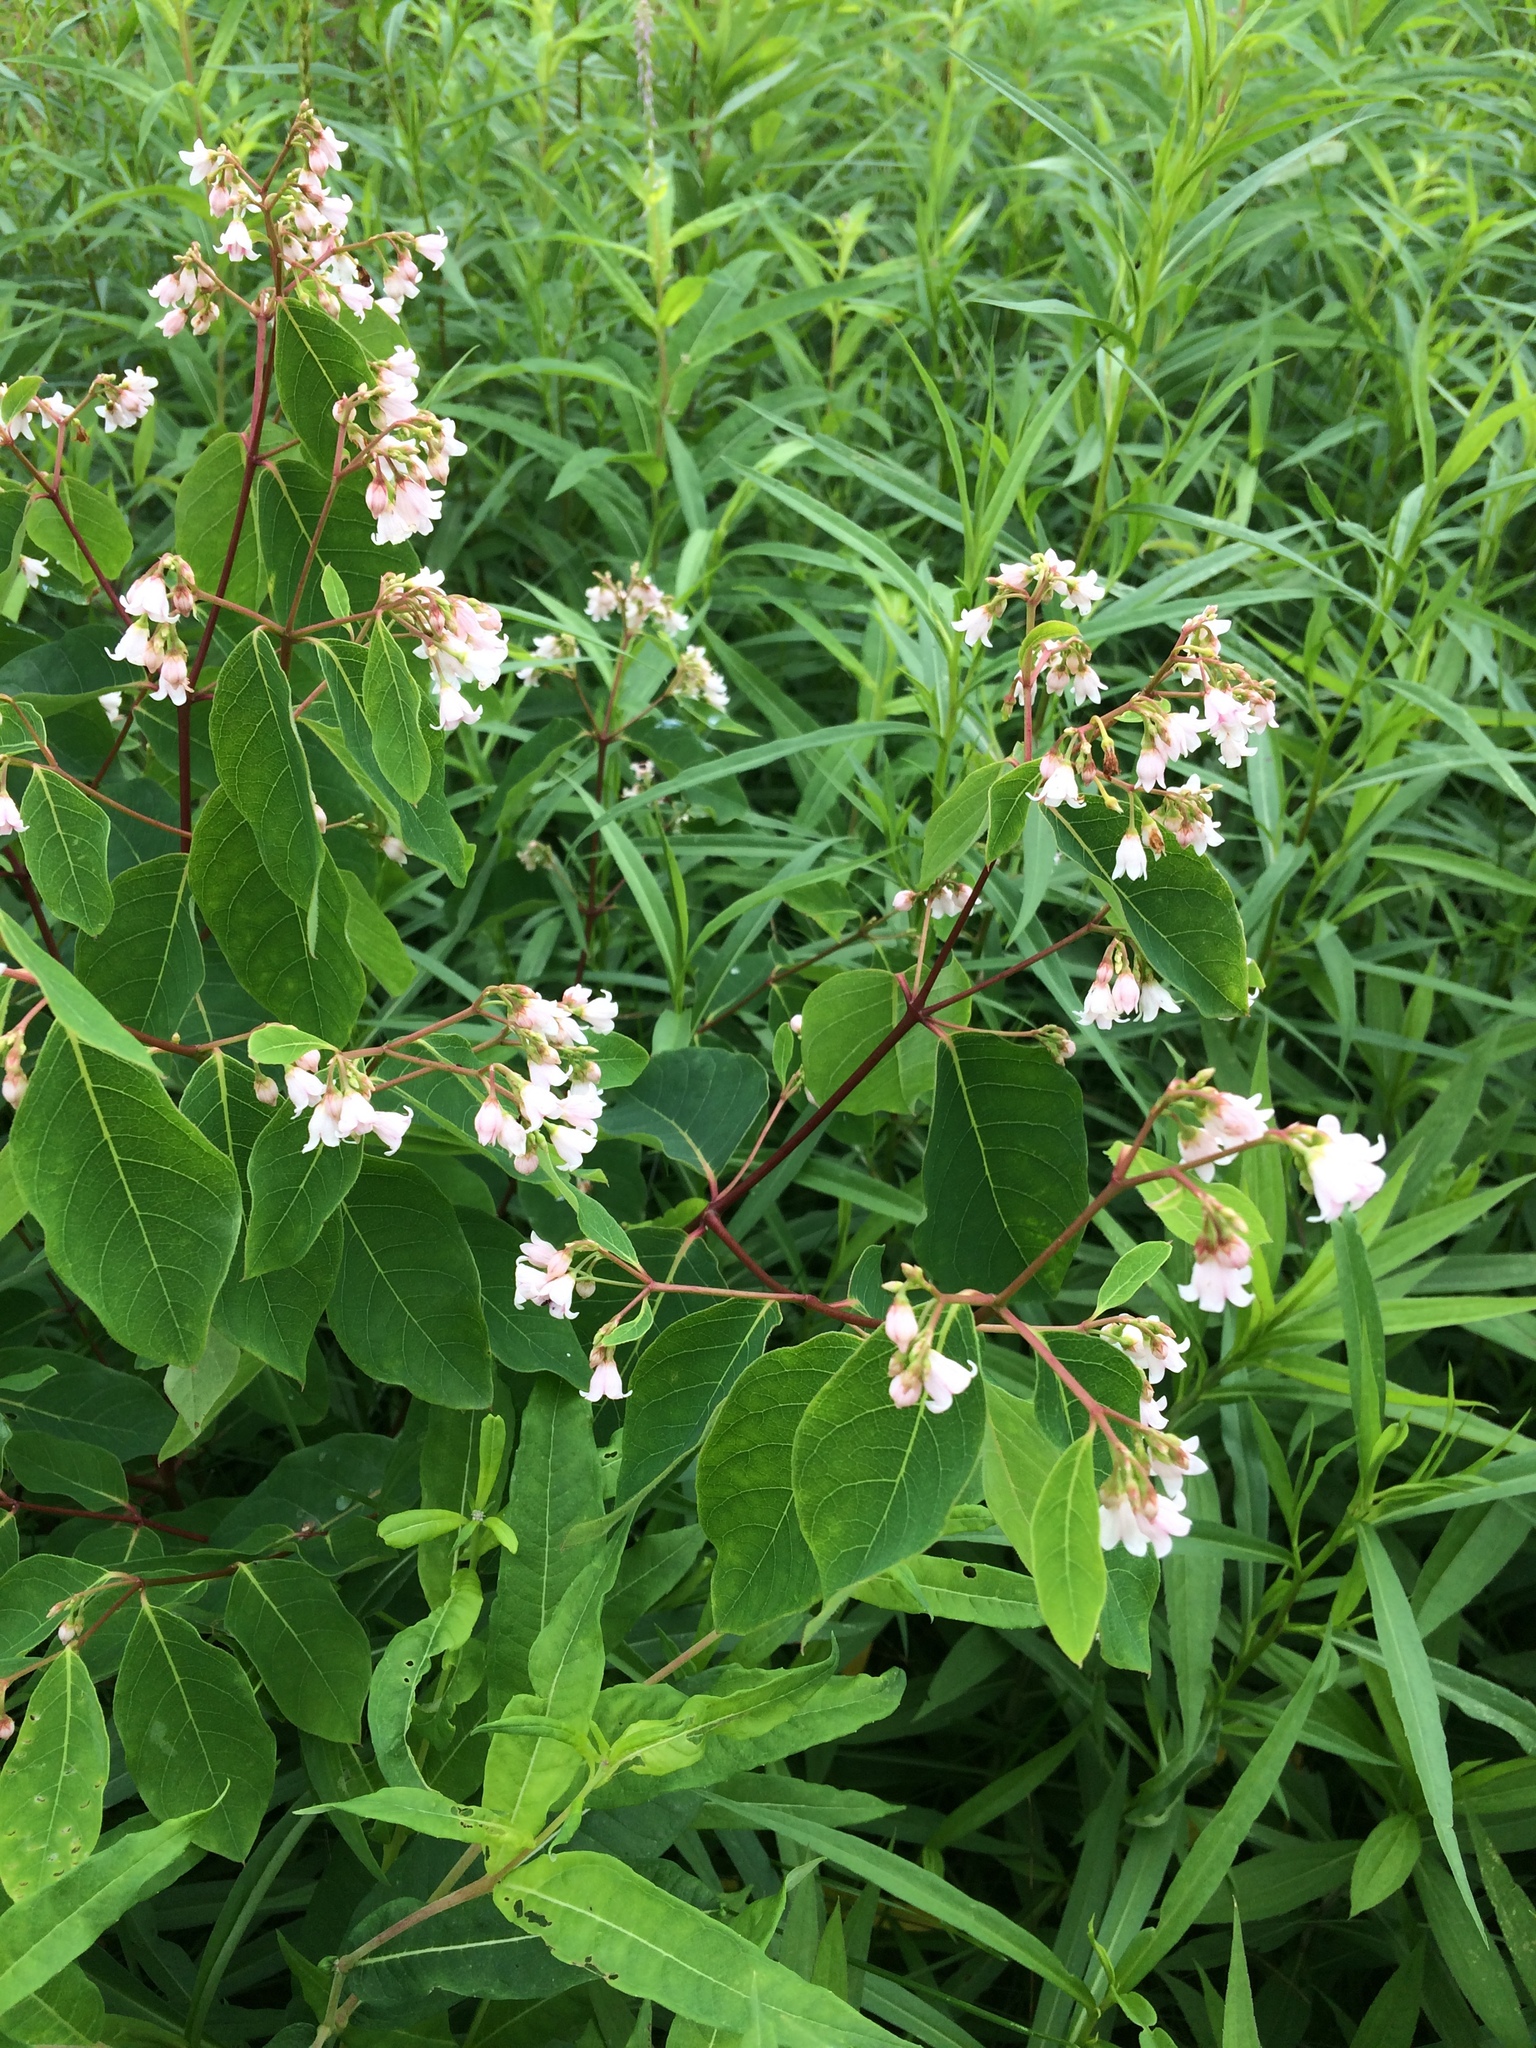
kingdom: Plantae
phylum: Tracheophyta
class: Magnoliopsida
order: Gentianales
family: Apocynaceae
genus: Apocynum
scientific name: Apocynum androsaemifolium
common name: Spreading dogbane
